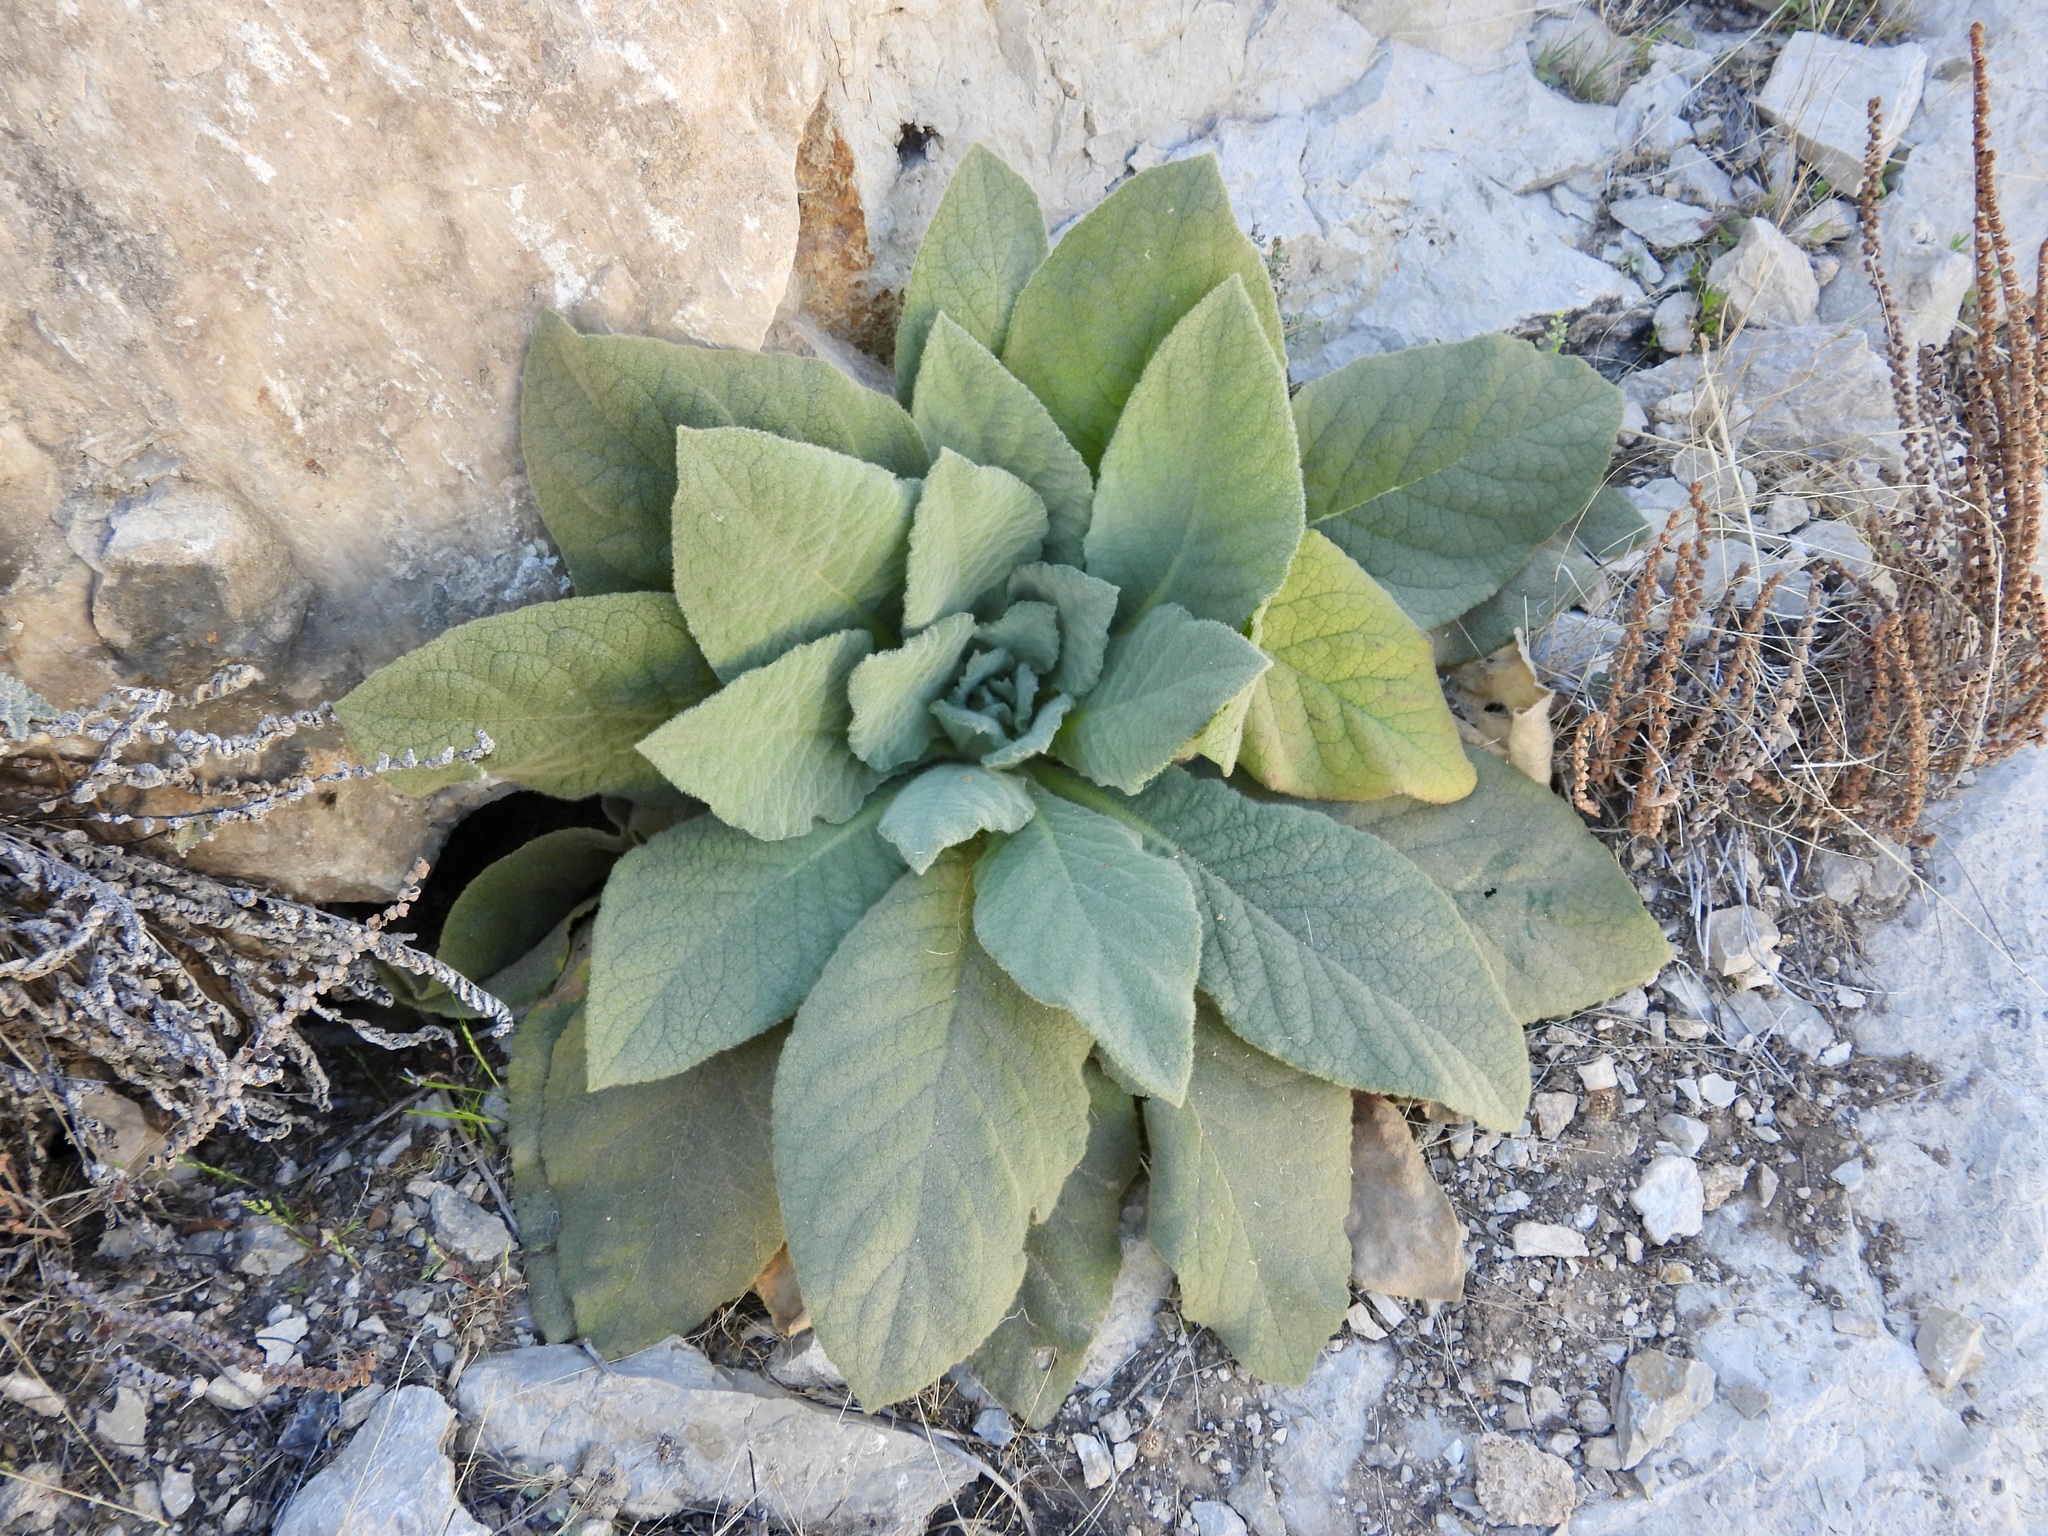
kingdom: Plantae
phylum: Tracheophyta
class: Magnoliopsida
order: Lamiales
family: Scrophulariaceae
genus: Verbascum
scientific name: Verbascum thapsus
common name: Common mullein
